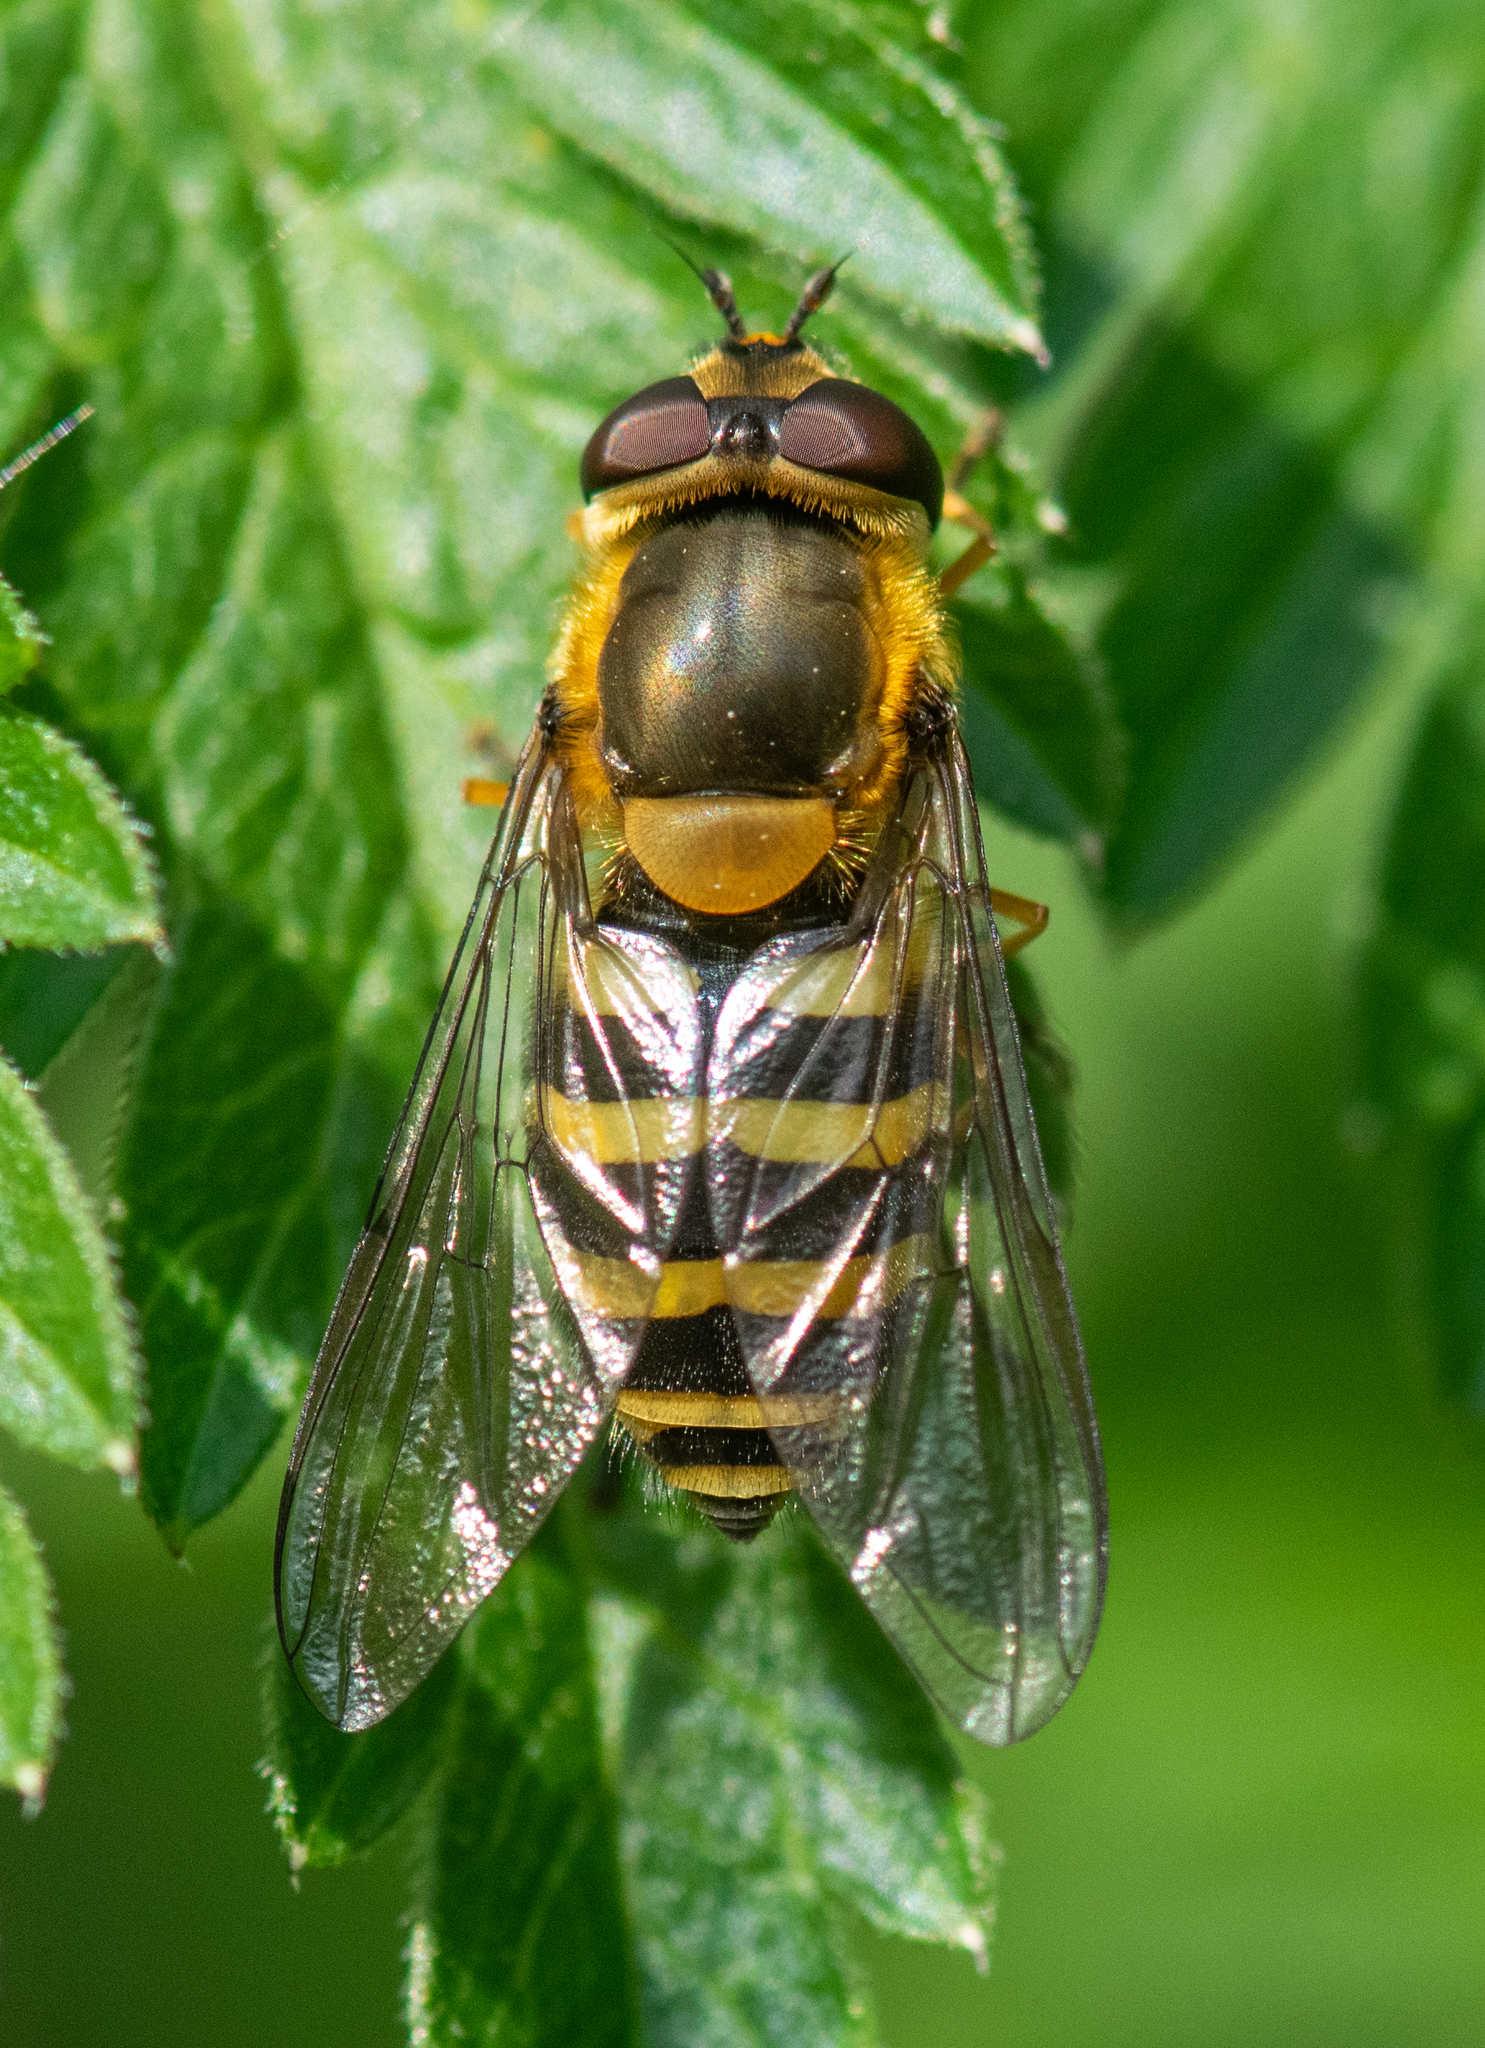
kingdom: Animalia
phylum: Arthropoda
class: Insecta
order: Diptera
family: Syrphidae
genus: Syrphus
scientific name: Syrphus
